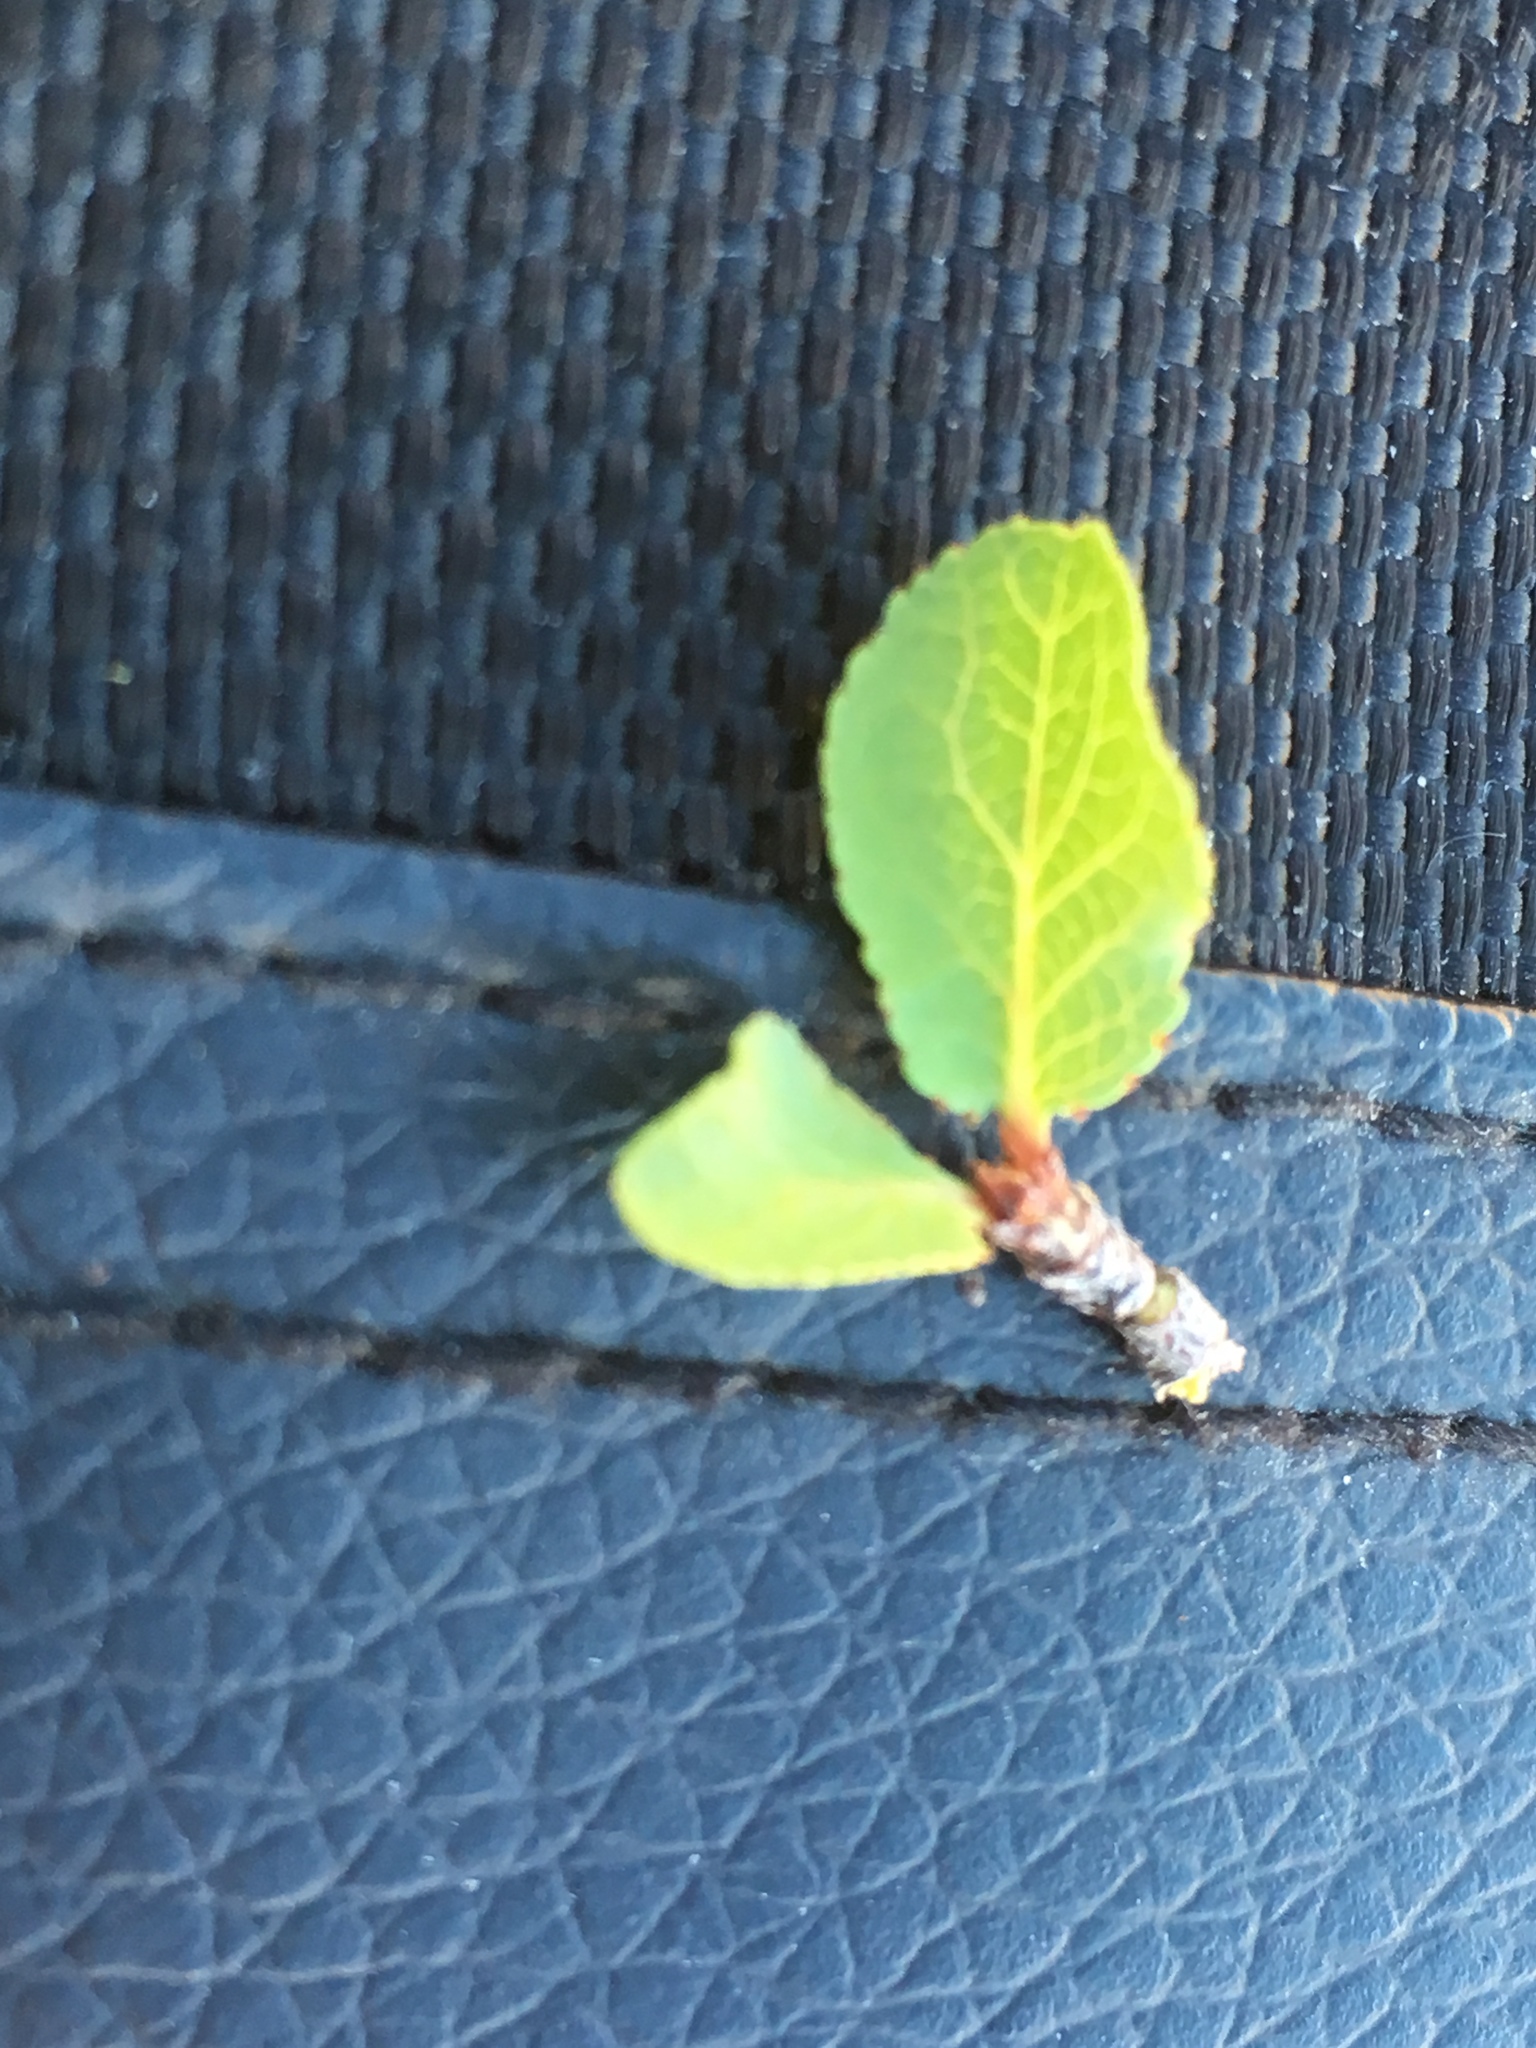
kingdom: Plantae
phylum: Tracheophyta
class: Magnoliopsida
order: Rosales
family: Rosaceae
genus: Prunus
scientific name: Prunus fremontii
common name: Desert apricot
